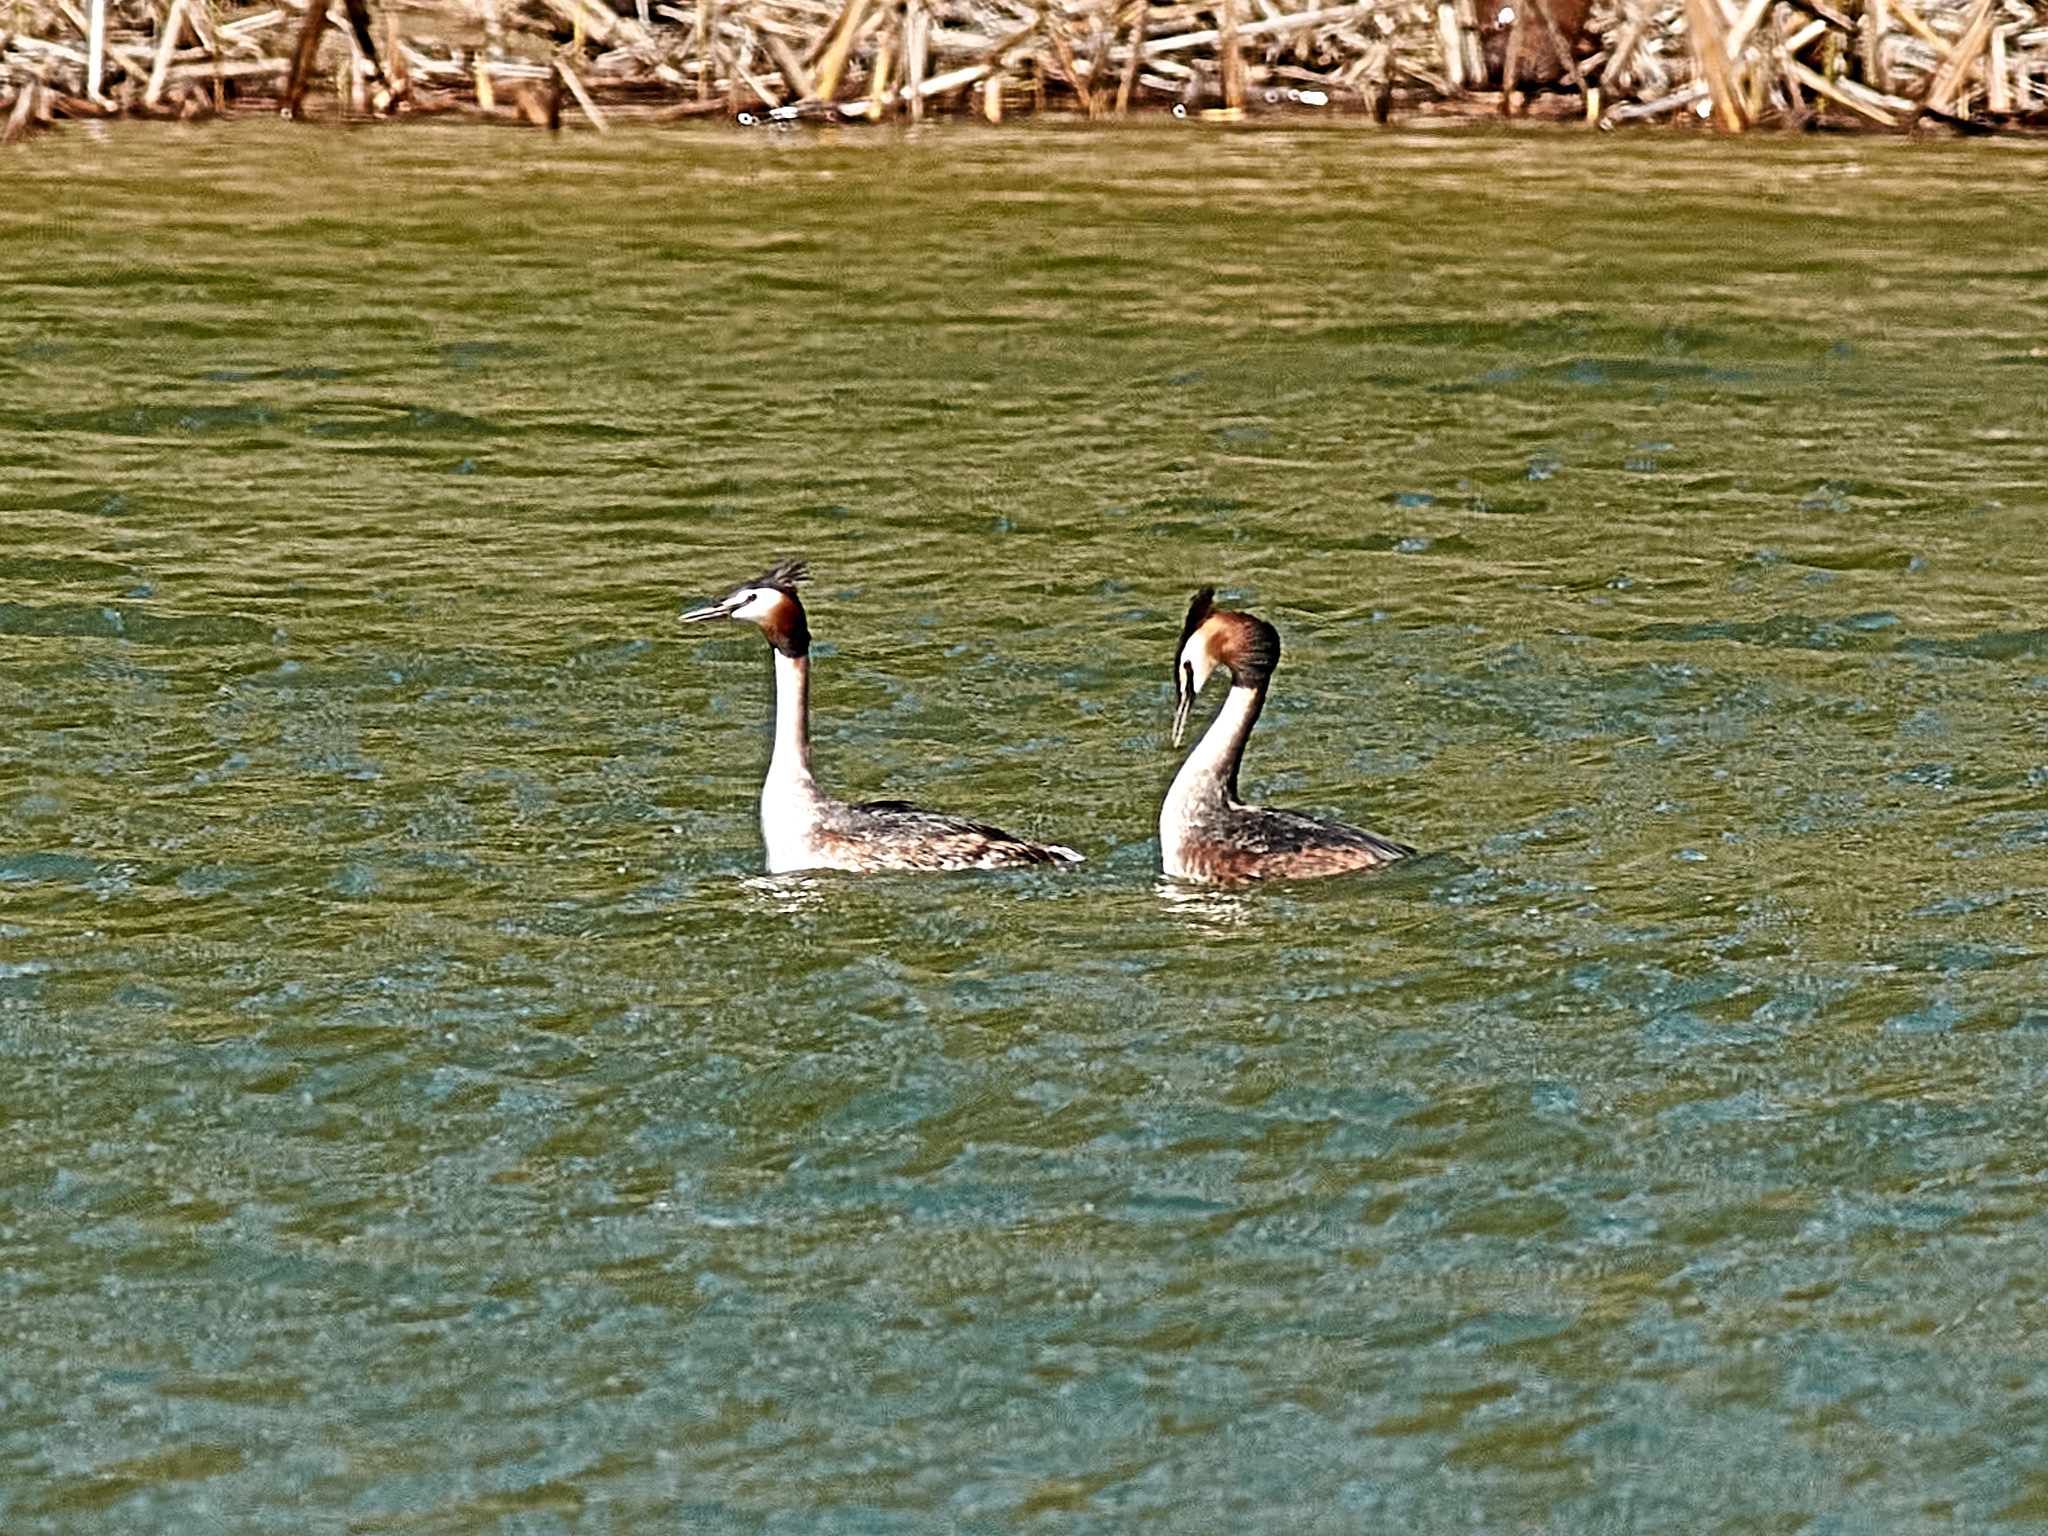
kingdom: Animalia
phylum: Chordata
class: Aves
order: Podicipediformes
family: Podicipedidae
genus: Podiceps
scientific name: Podiceps cristatus
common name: Great crested grebe
